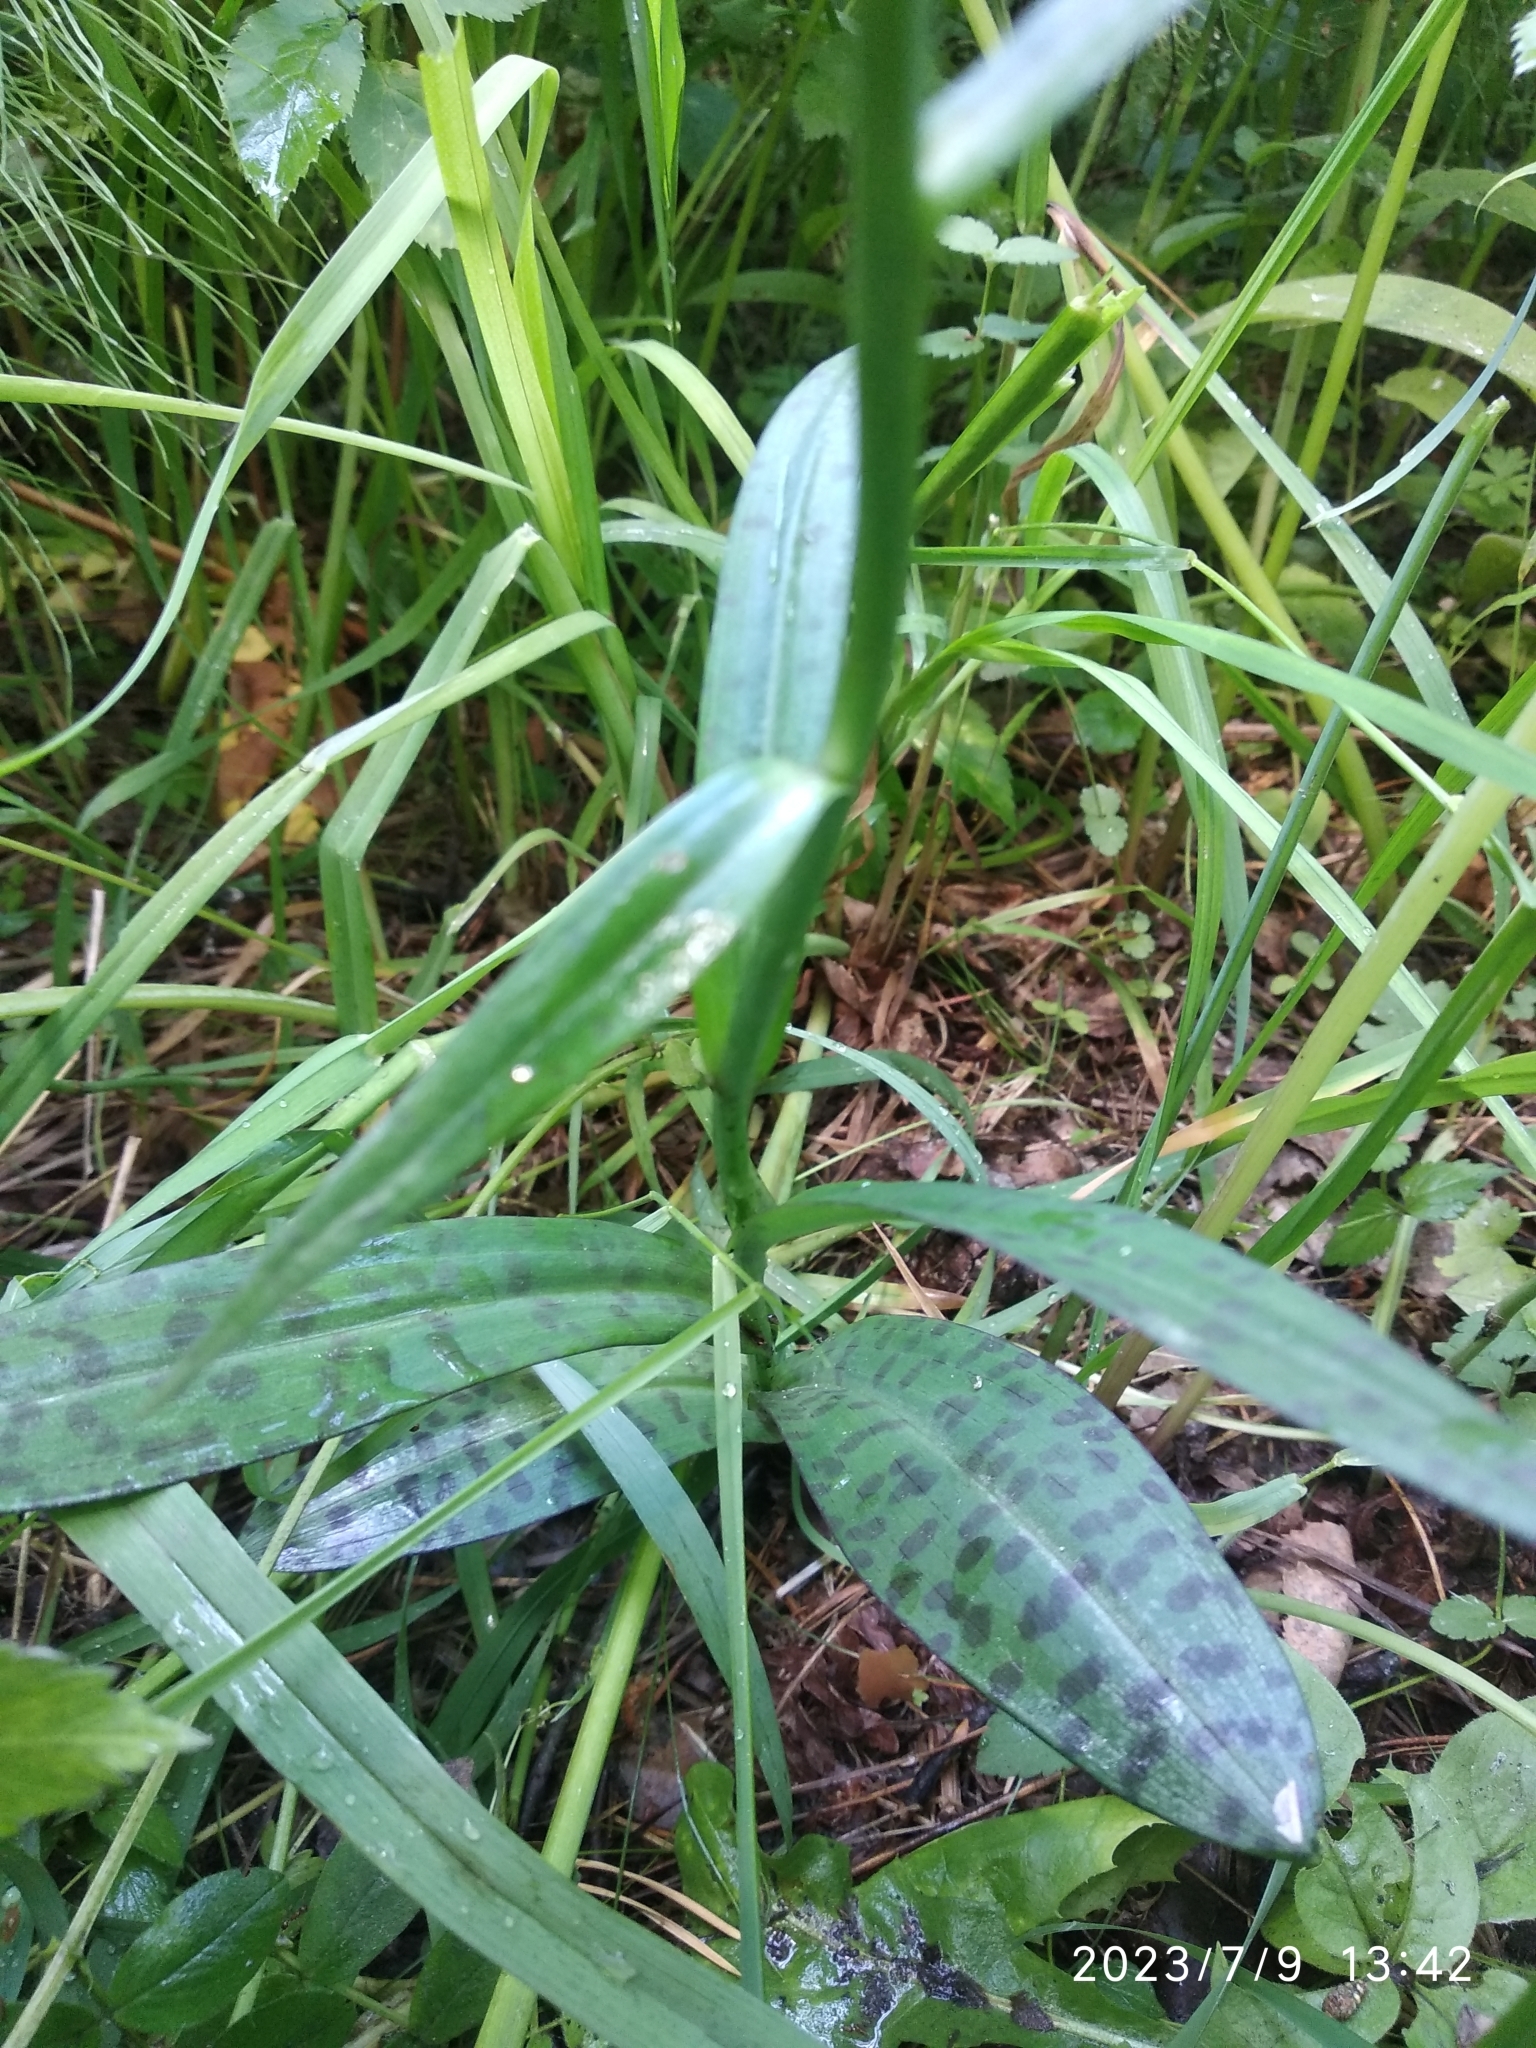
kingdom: Plantae
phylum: Tracheophyta
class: Liliopsida
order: Asparagales
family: Orchidaceae
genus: Dactylorhiza
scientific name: Dactylorhiza maculata
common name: Heath spotted-orchid
